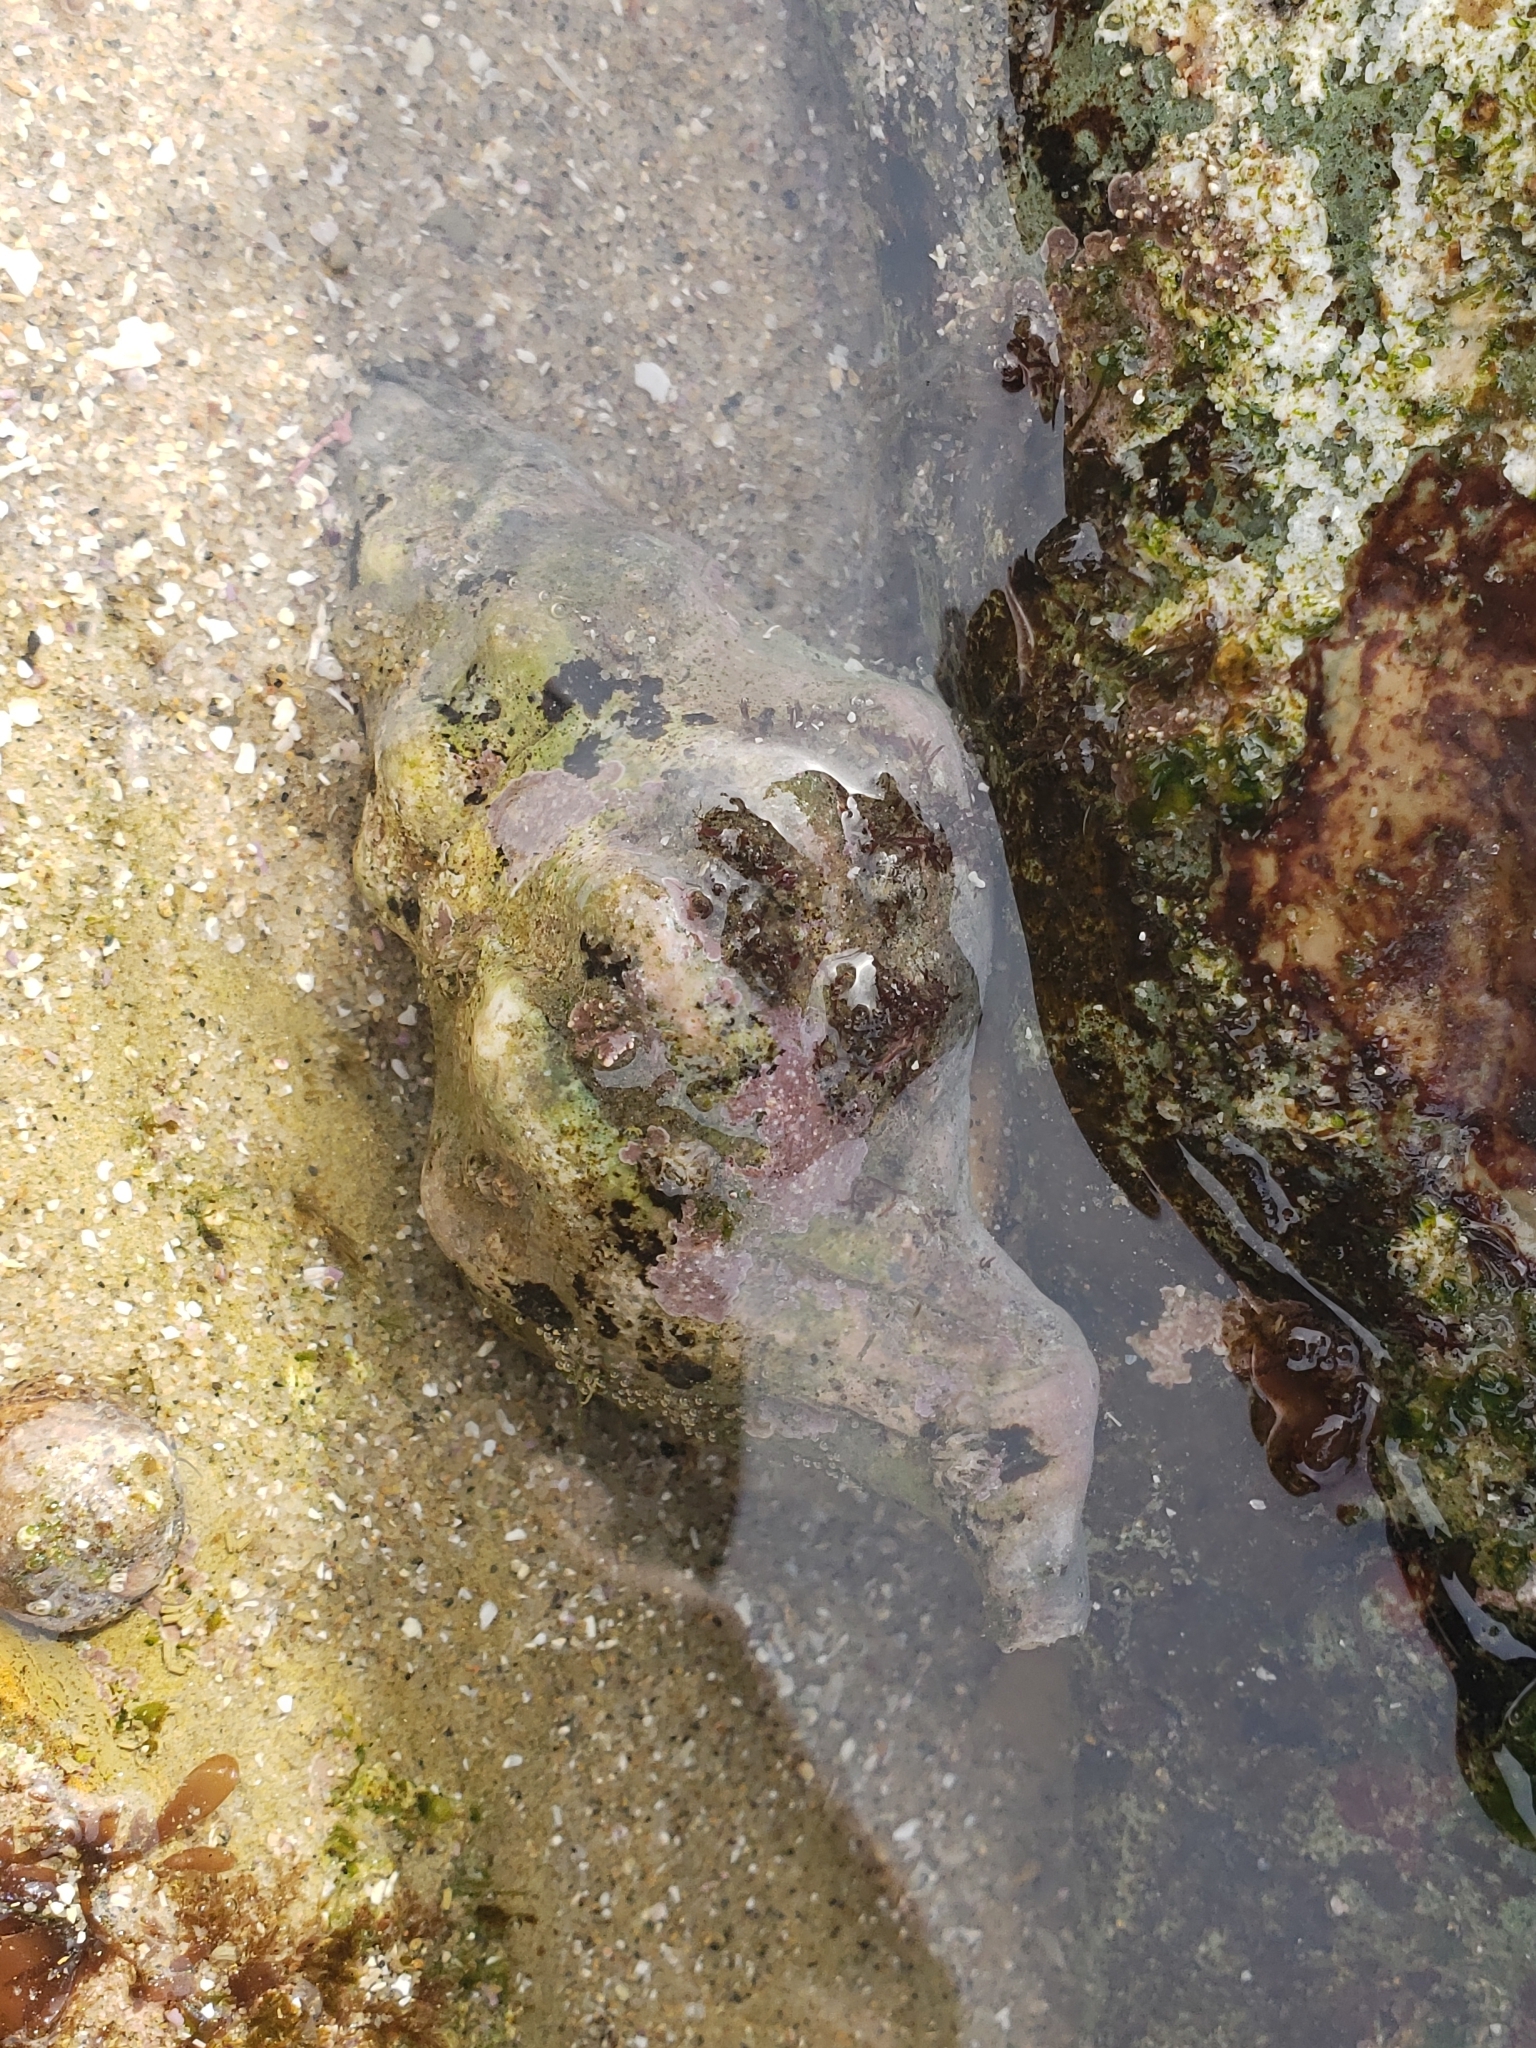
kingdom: Animalia
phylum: Mollusca
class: Gastropoda
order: Neogastropoda
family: Austrosiphonidae
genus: Kelletia
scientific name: Kelletia kelletii
